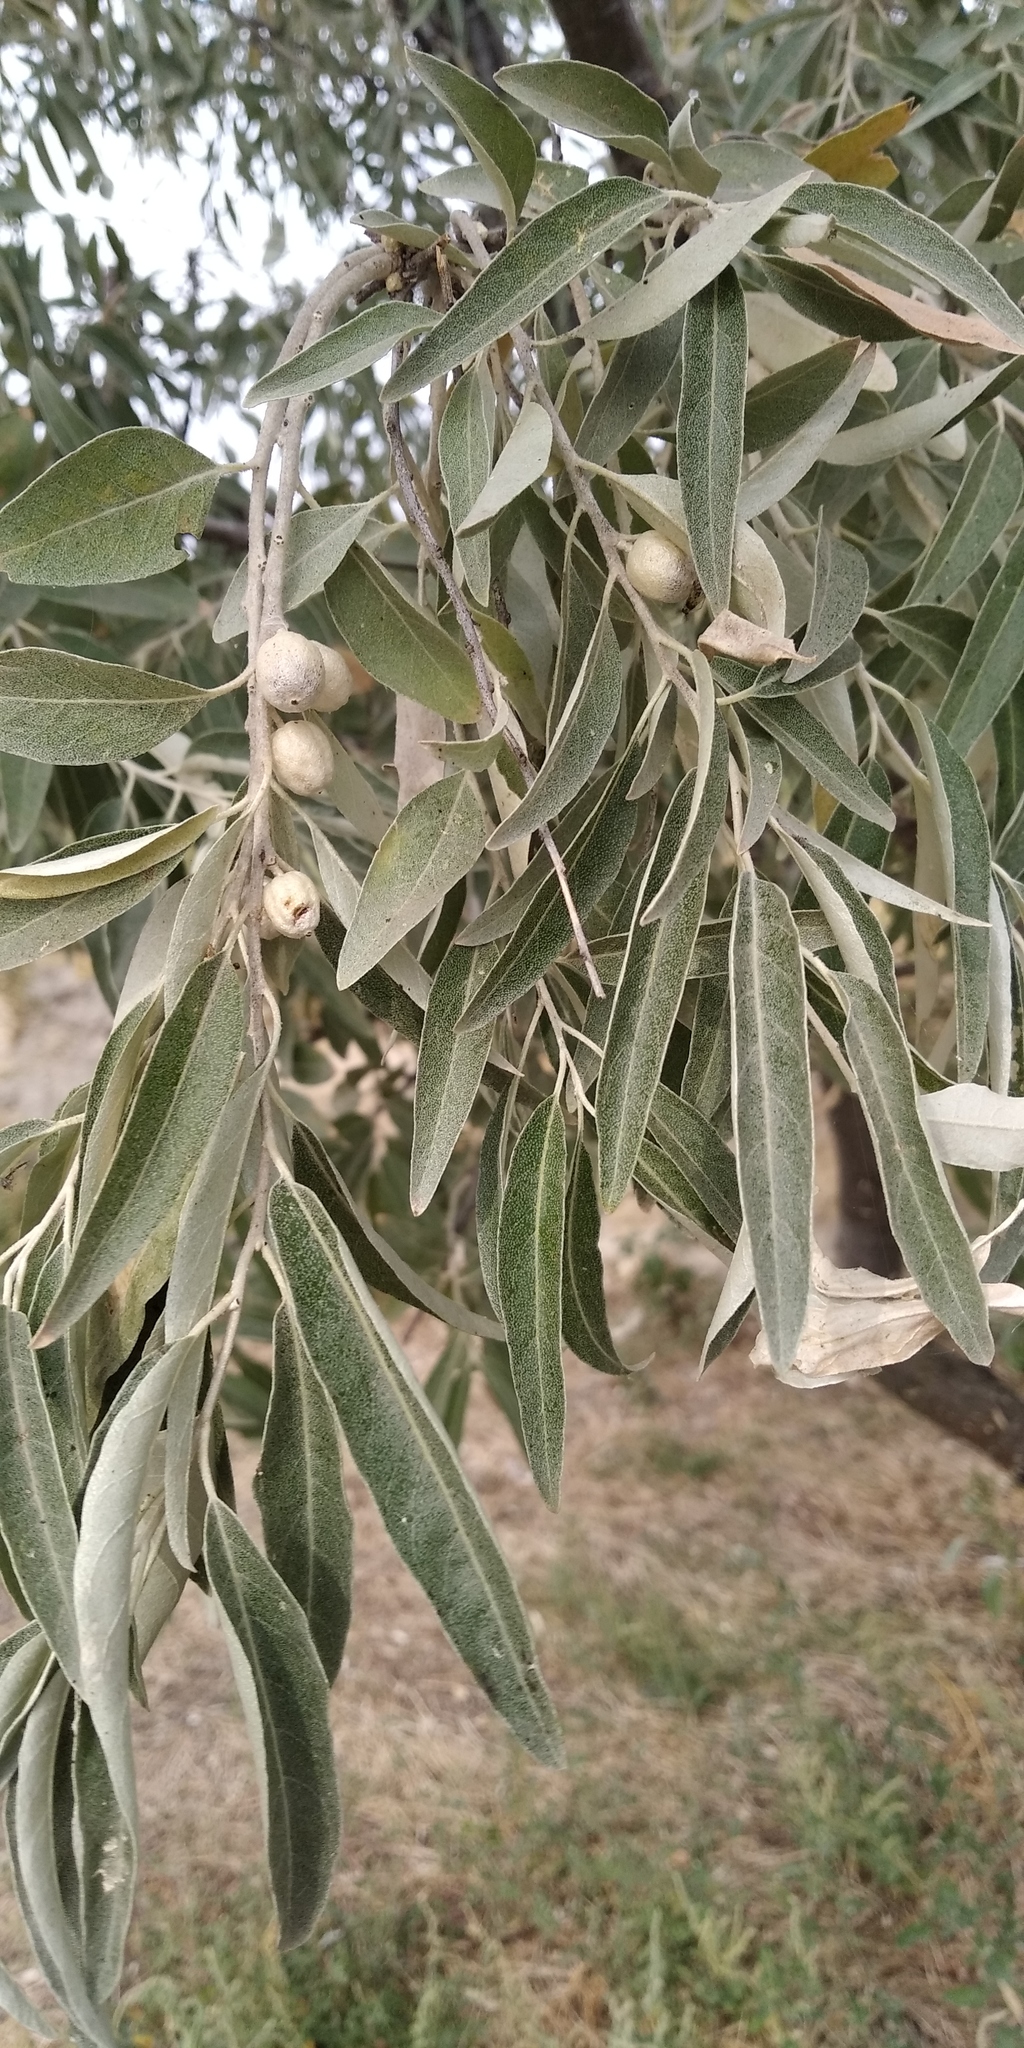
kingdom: Plantae
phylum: Tracheophyta
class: Magnoliopsida
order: Rosales
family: Elaeagnaceae
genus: Elaeagnus
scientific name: Elaeagnus angustifolia
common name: Russian olive
